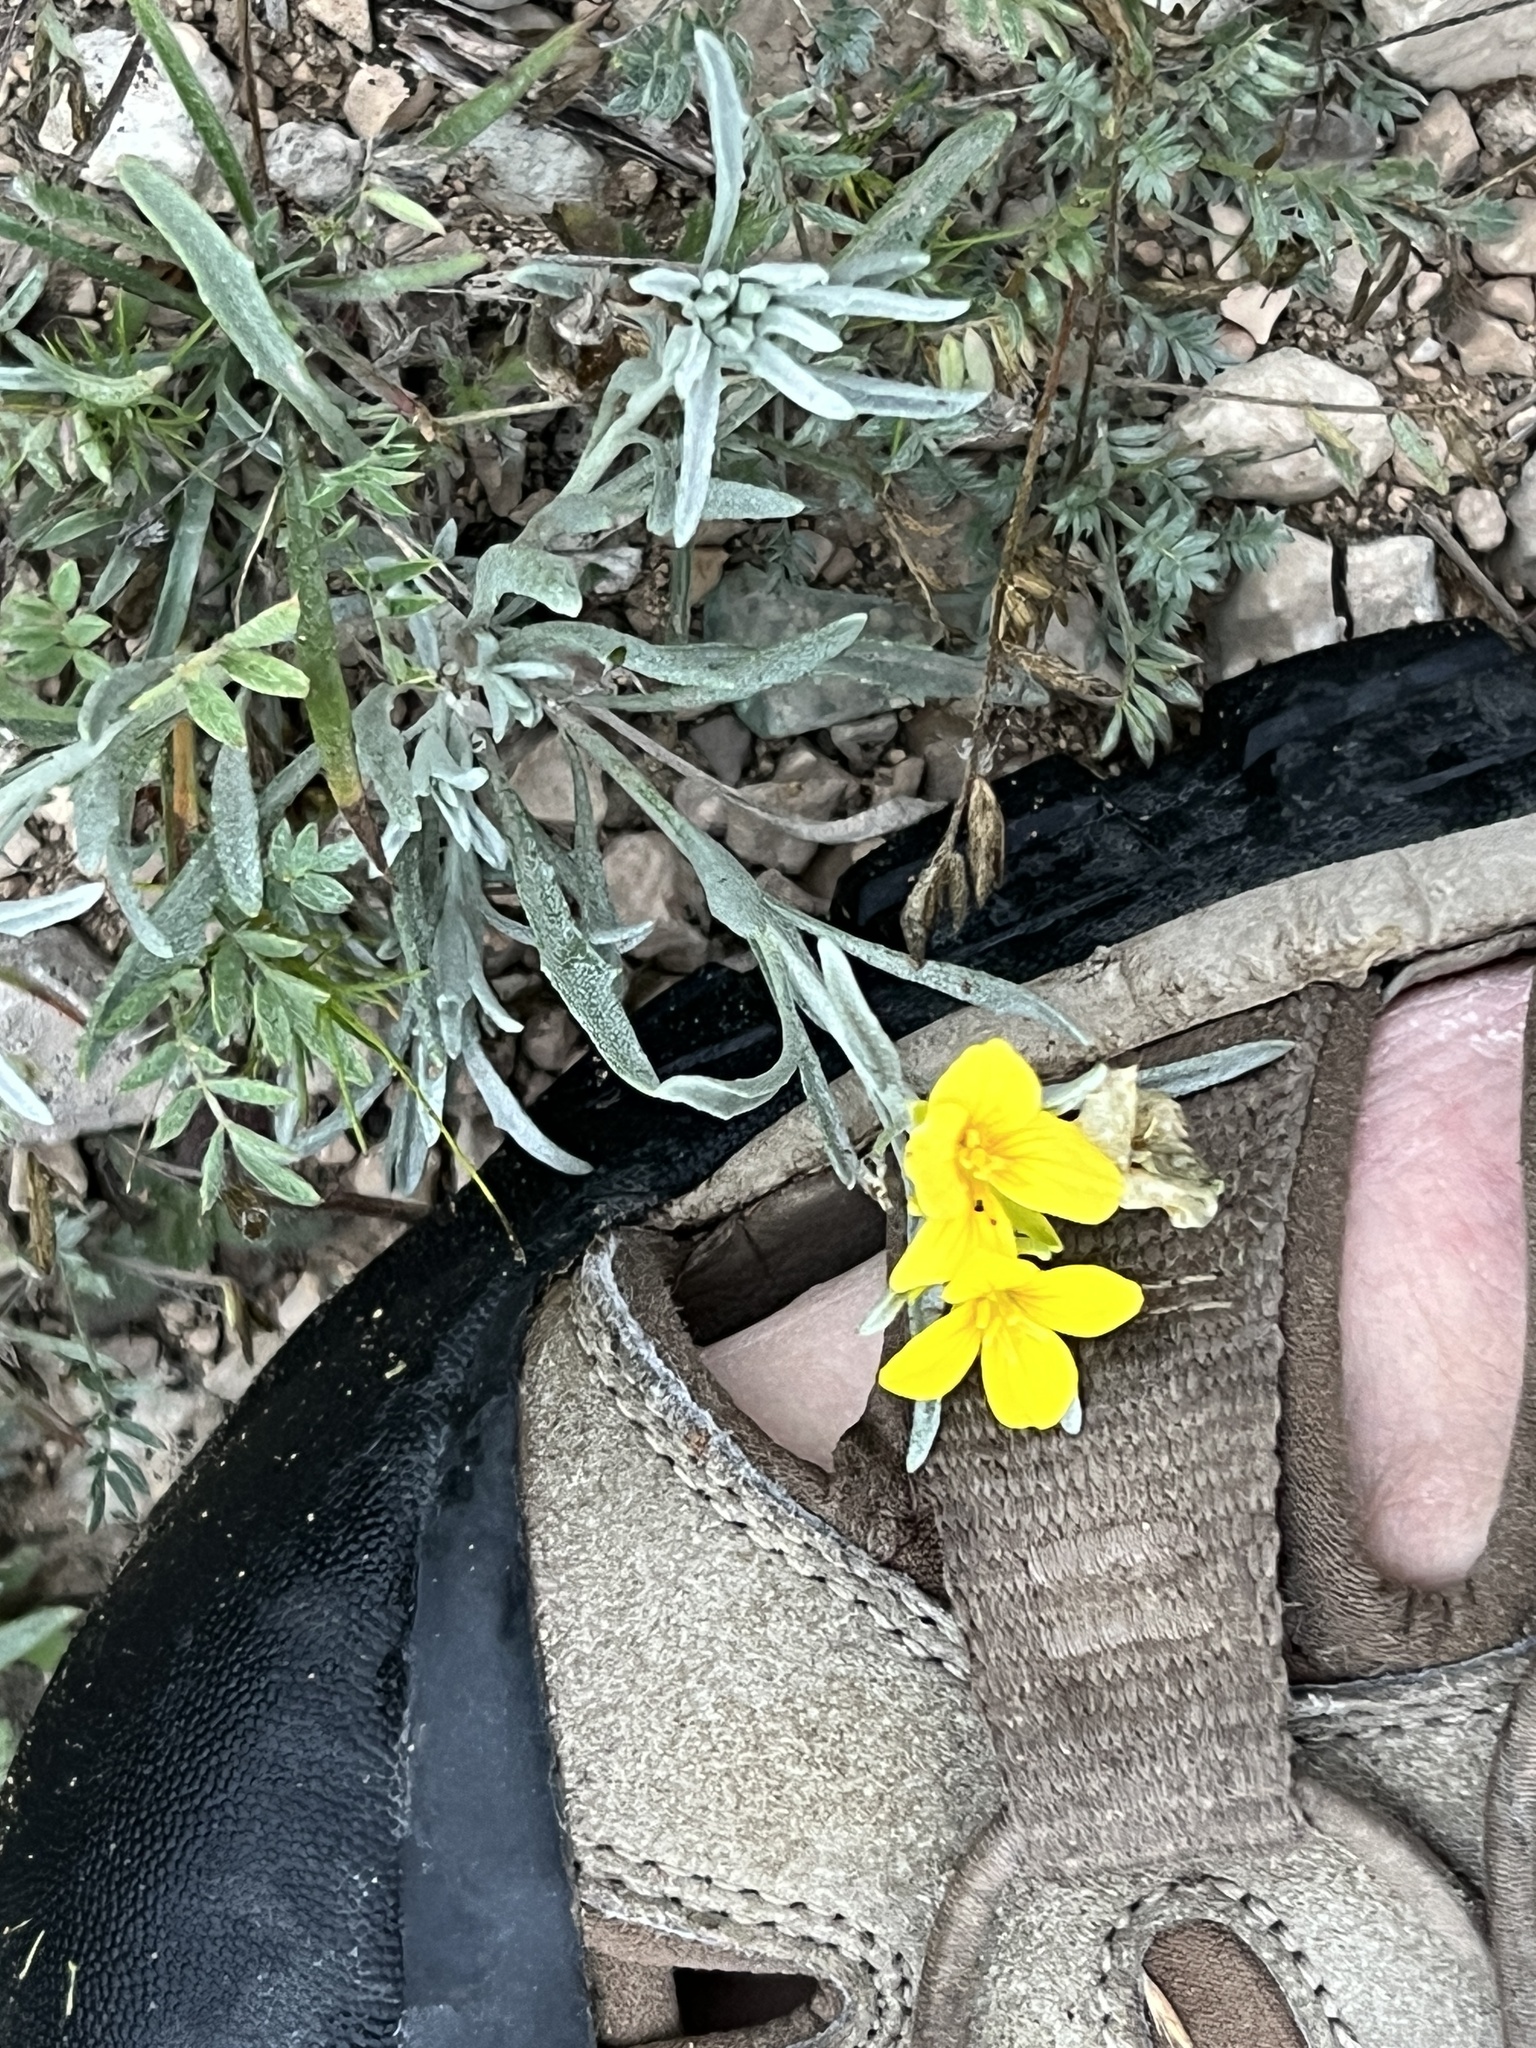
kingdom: Plantae
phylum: Tracheophyta
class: Magnoliopsida
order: Brassicales
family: Brassicaceae
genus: Physaria
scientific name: Physaria fendleri
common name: Fendler's bladderpod
